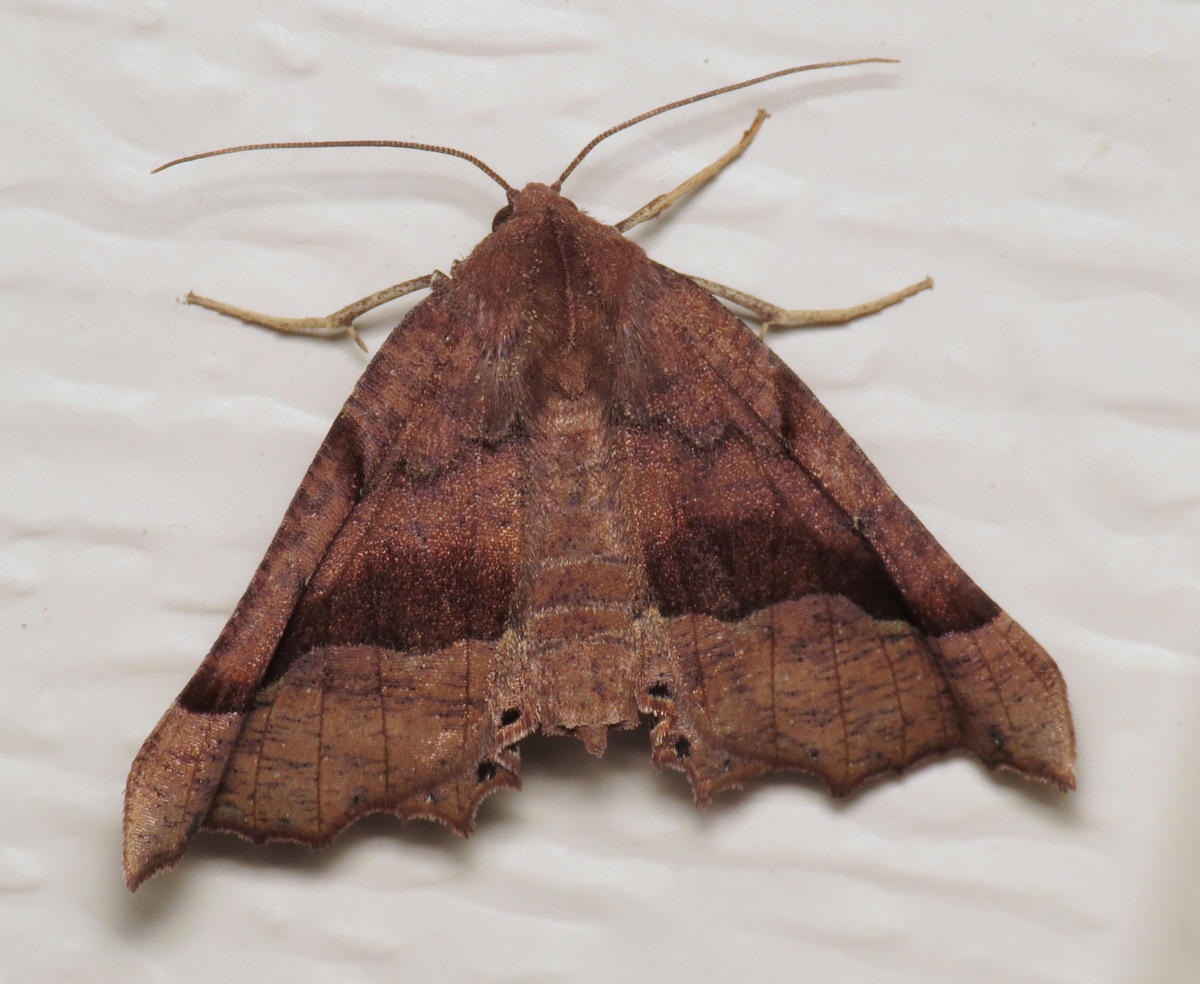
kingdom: Animalia
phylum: Arthropoda
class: Insecta
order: Lepidoptera
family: Geometridae
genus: Pero
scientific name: Pero honestaria
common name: Honest pero
